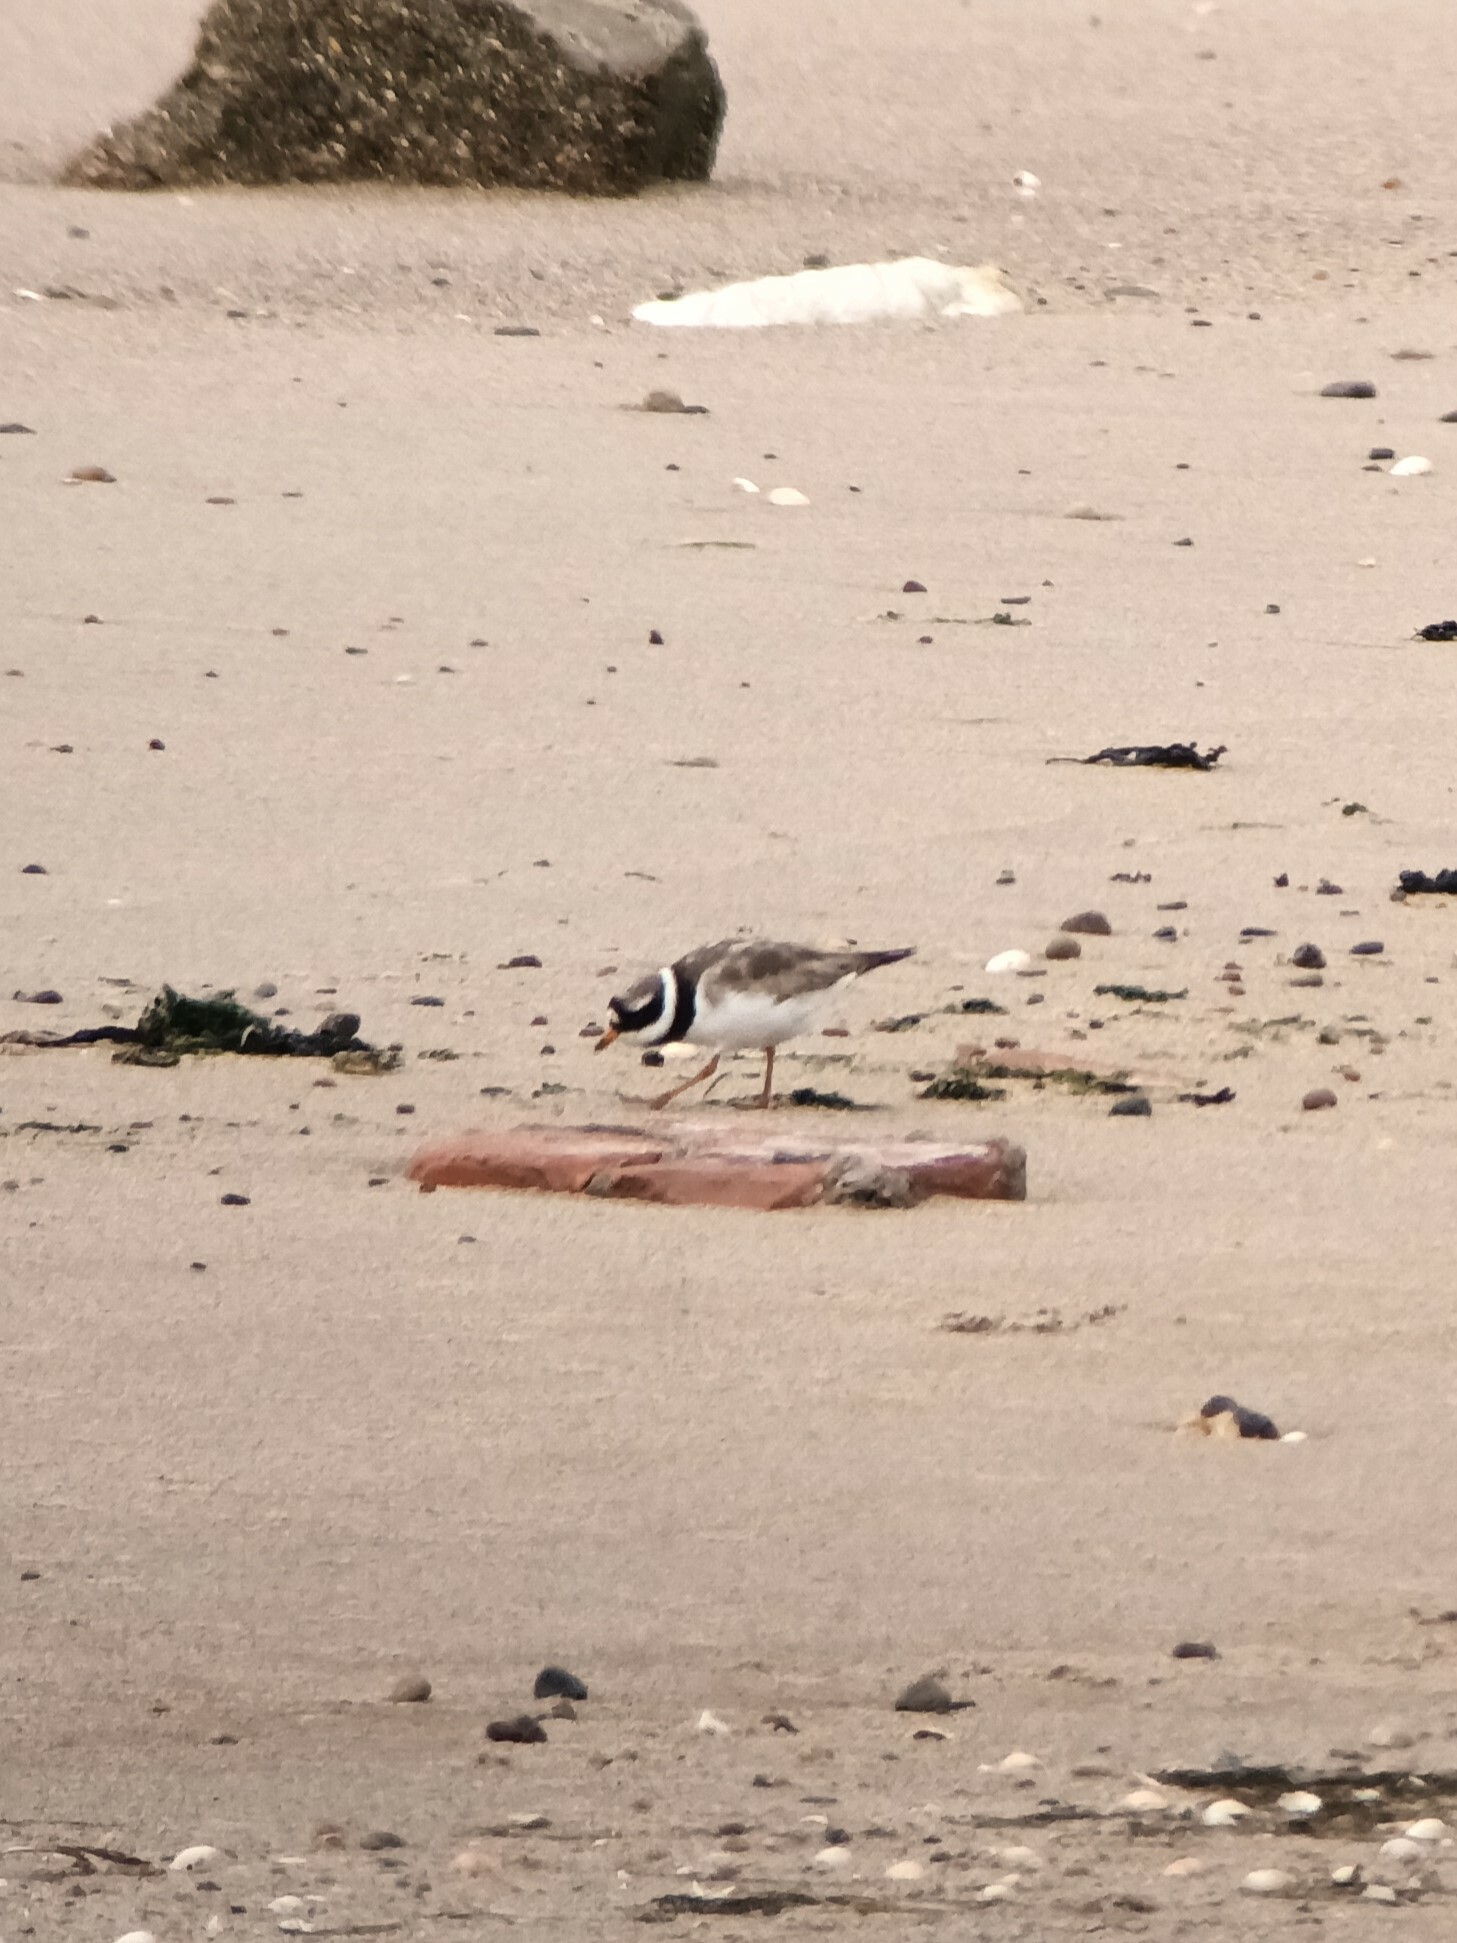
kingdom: Animalia
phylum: Chordata
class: Aves
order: Charadriiformes
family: Charadriidae
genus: Charadrius
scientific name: Charadrius hiaticula
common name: Common ringed plover
